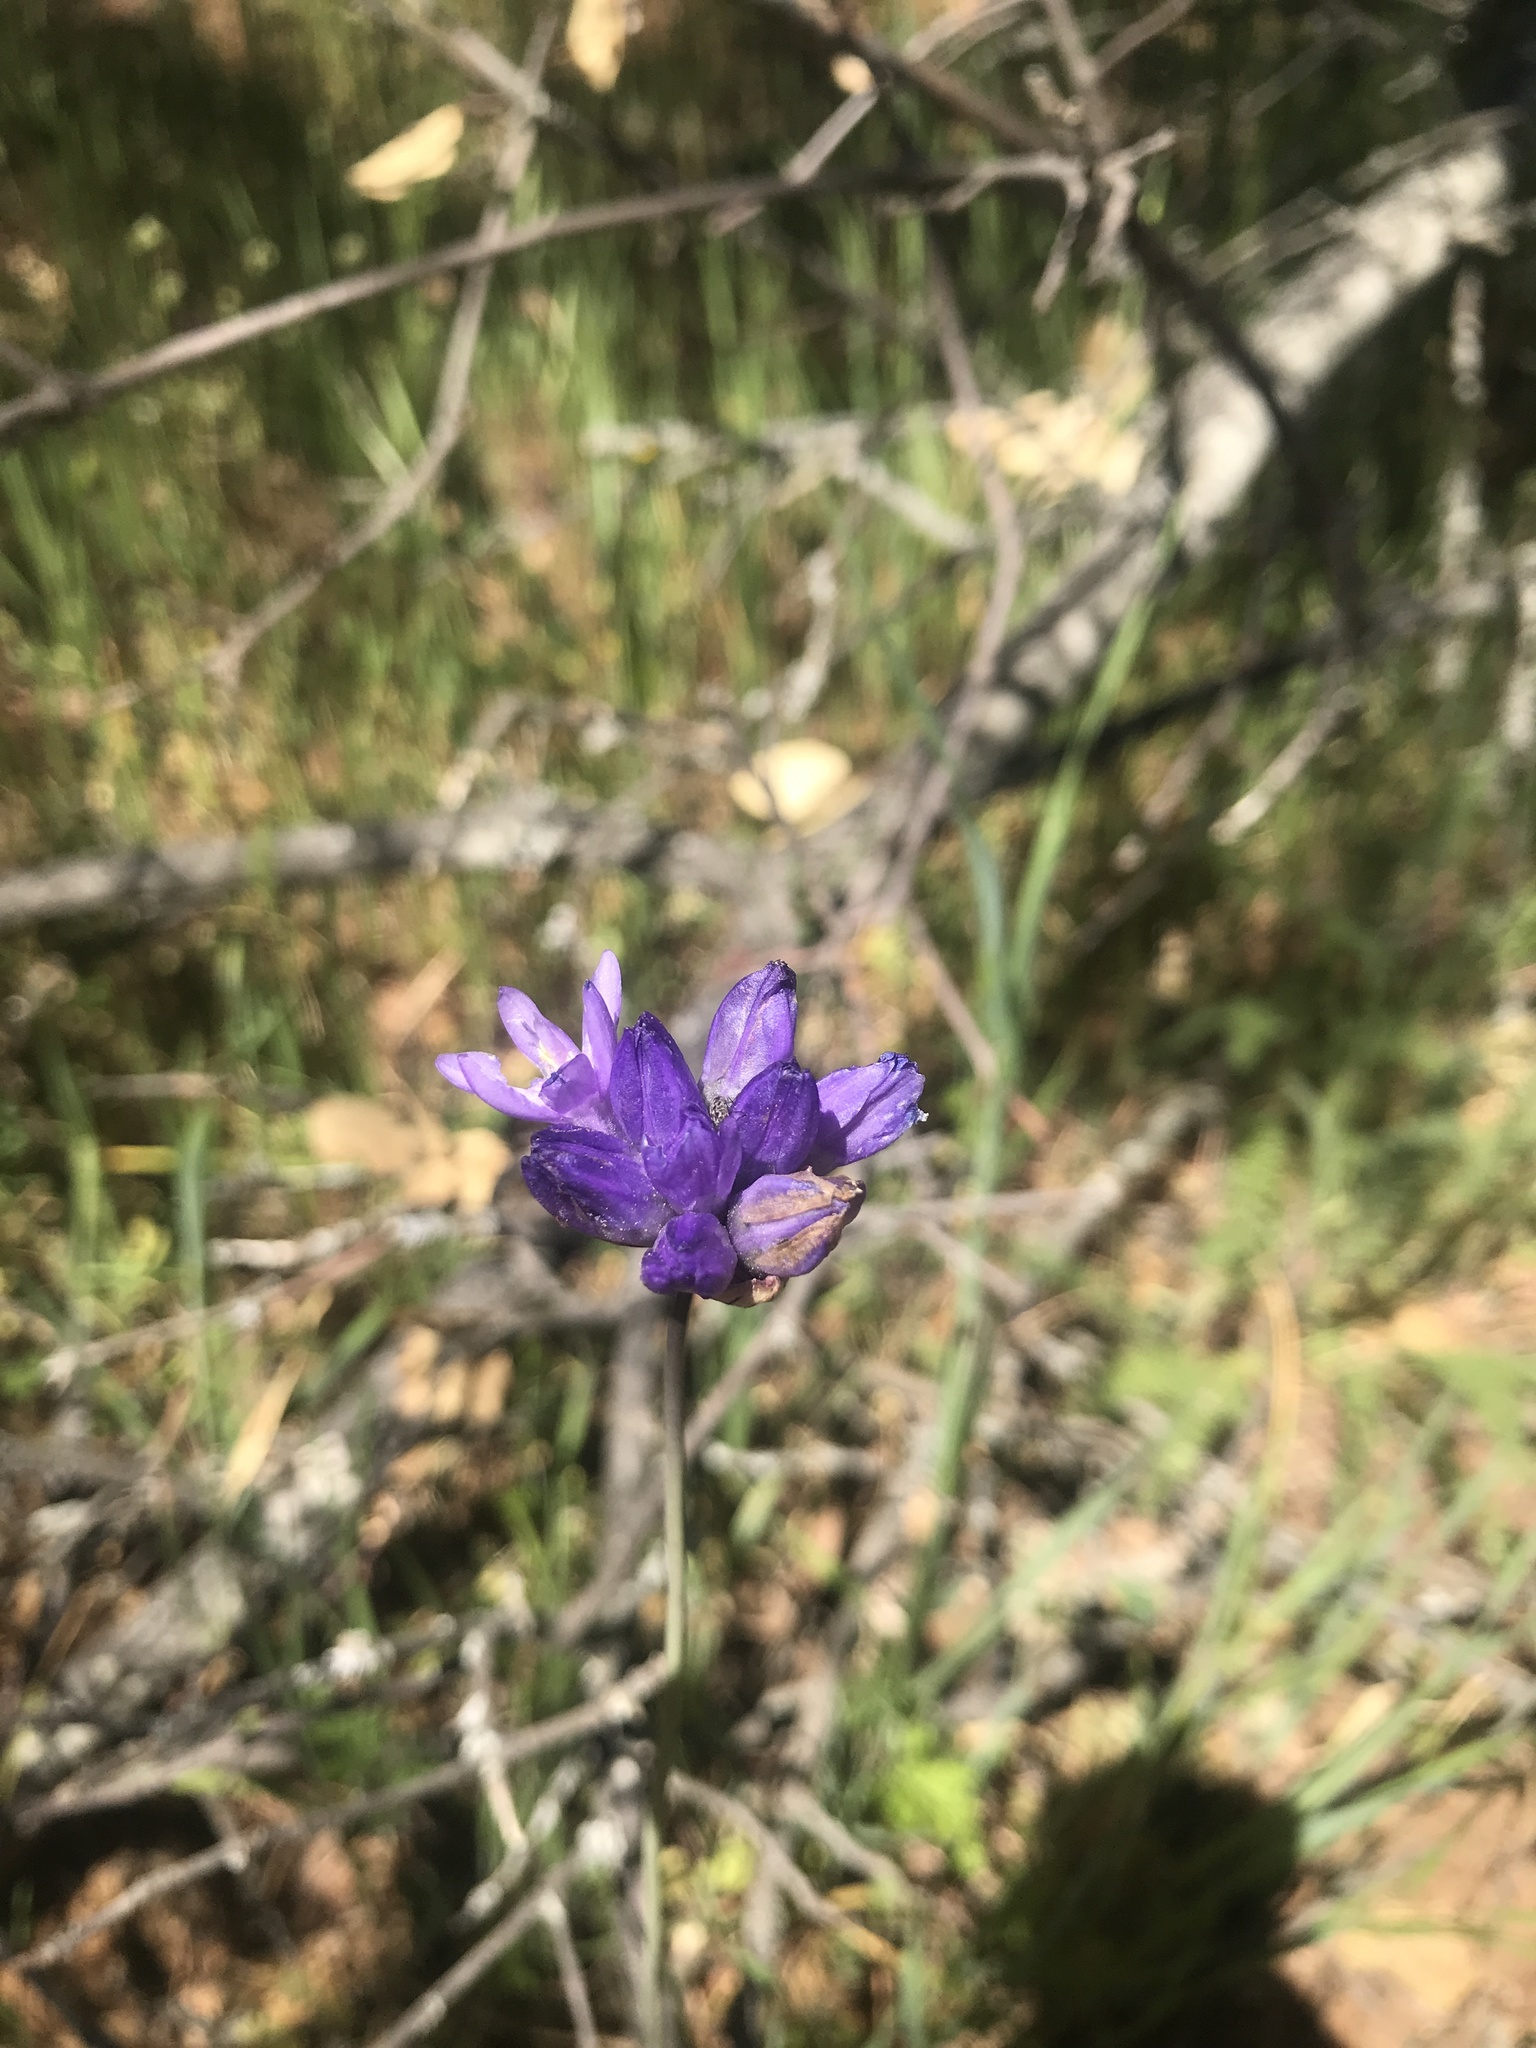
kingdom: Plantae
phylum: Tracheophyta
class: Liliopsida
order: Asparagales
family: Asparagaceae
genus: Dipterostemon
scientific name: Dipterostemon capitatus
